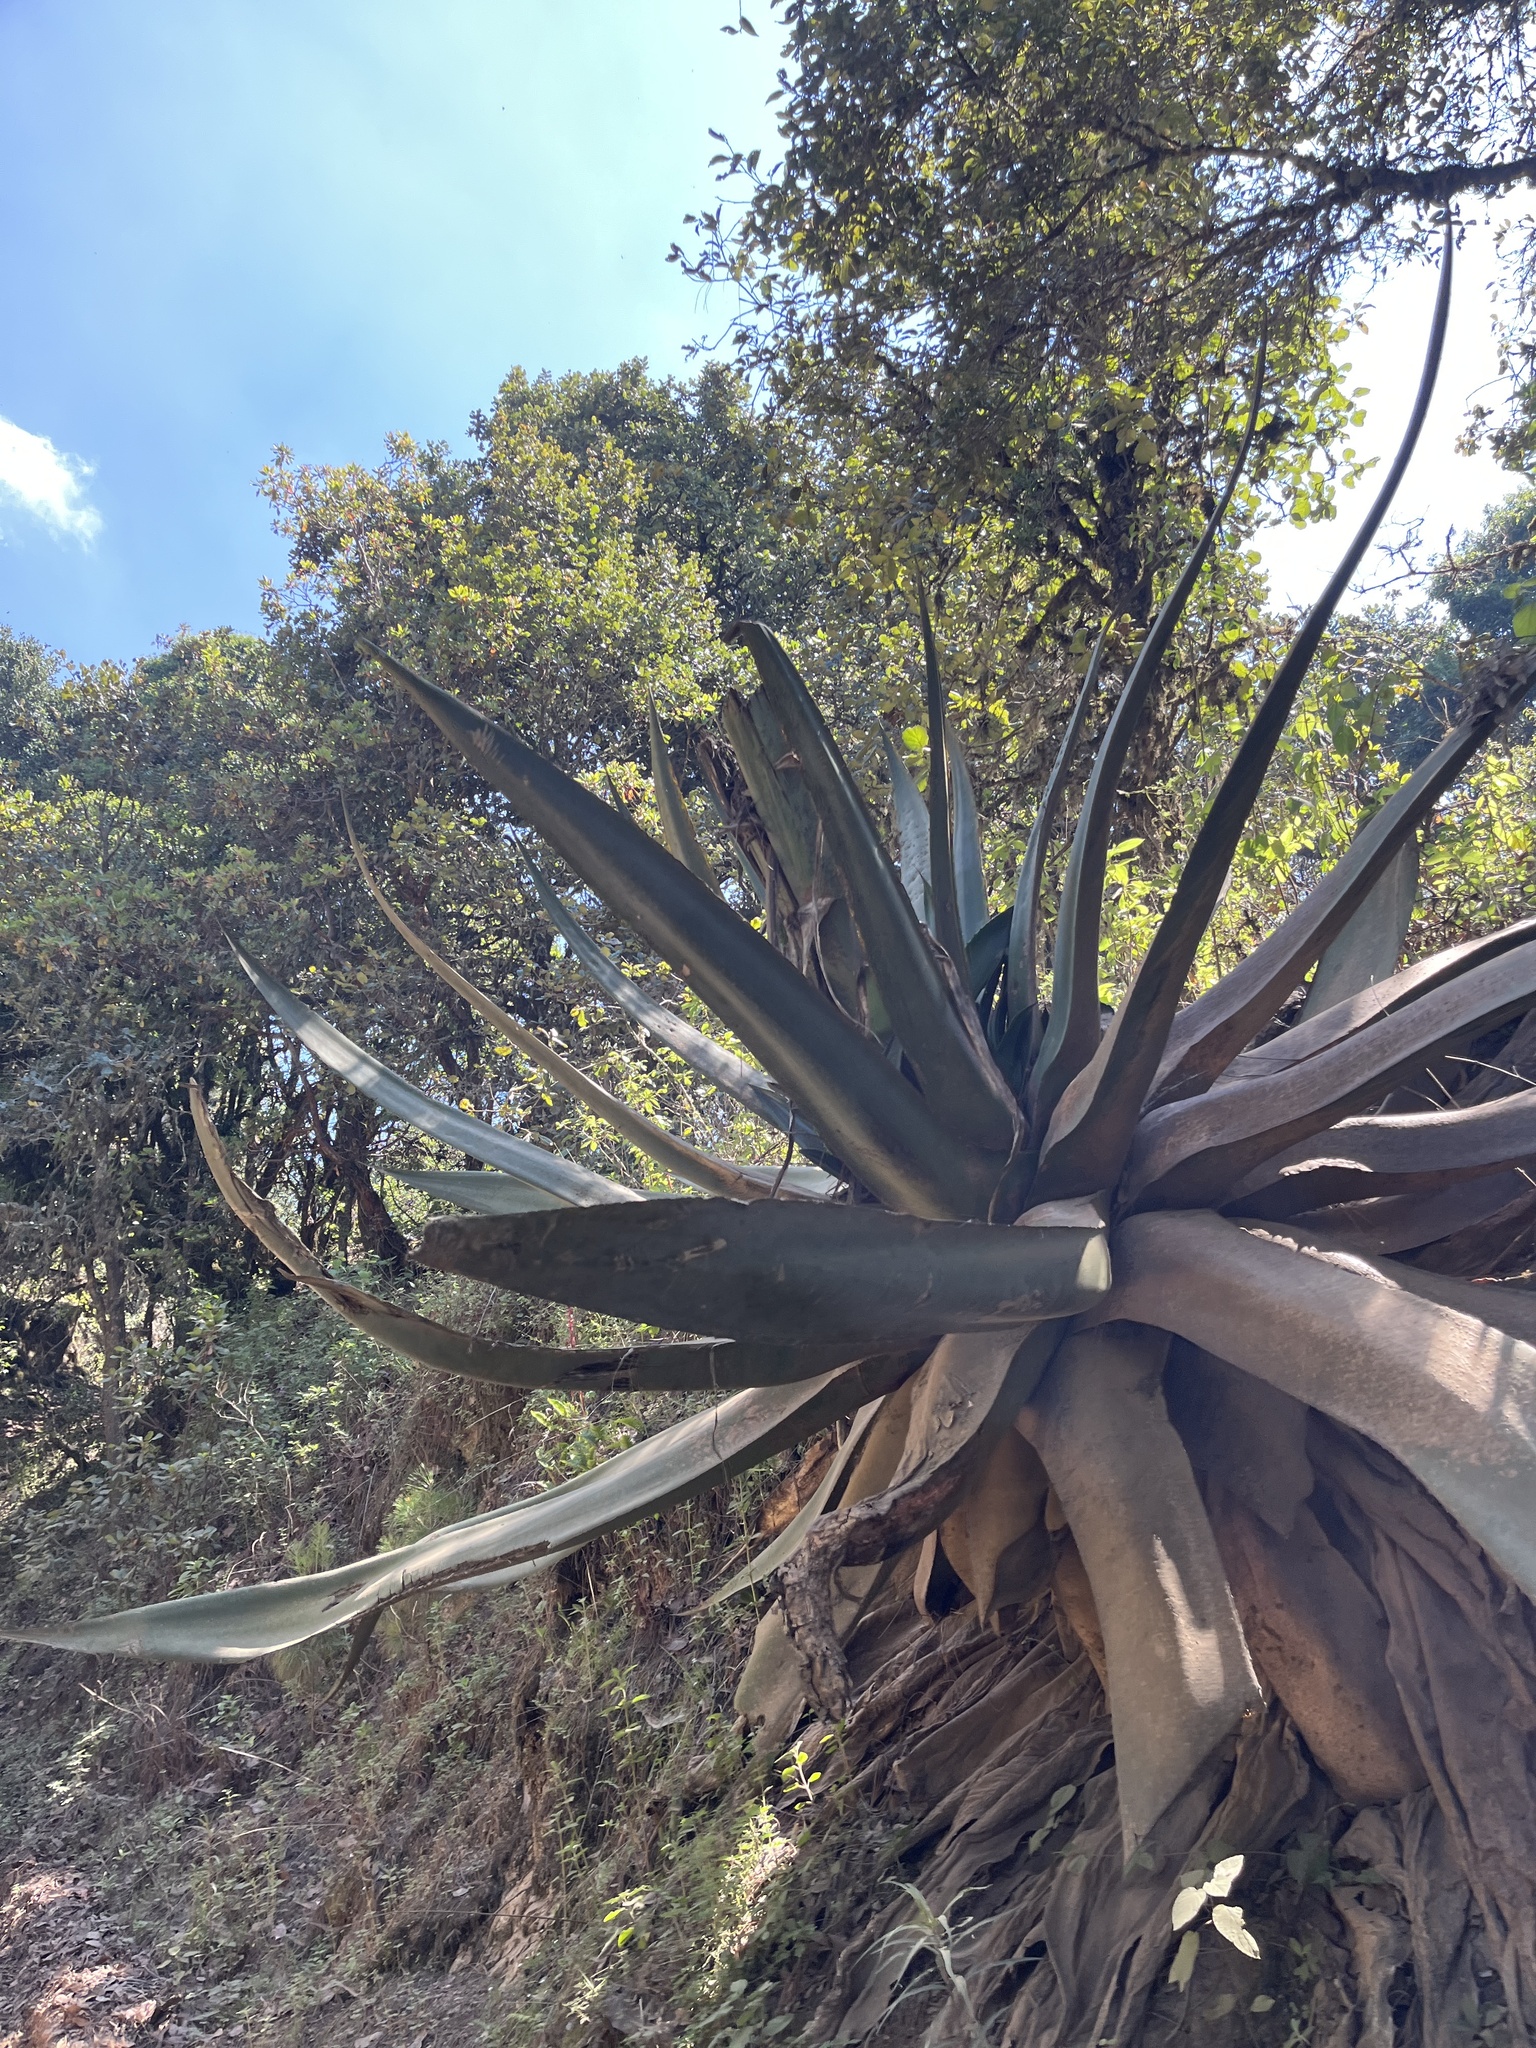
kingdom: Plantae
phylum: Tracheophyta
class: Liliopsida
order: Asparagales
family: Asparagaceae
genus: Agave
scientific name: Agave atrovirens
